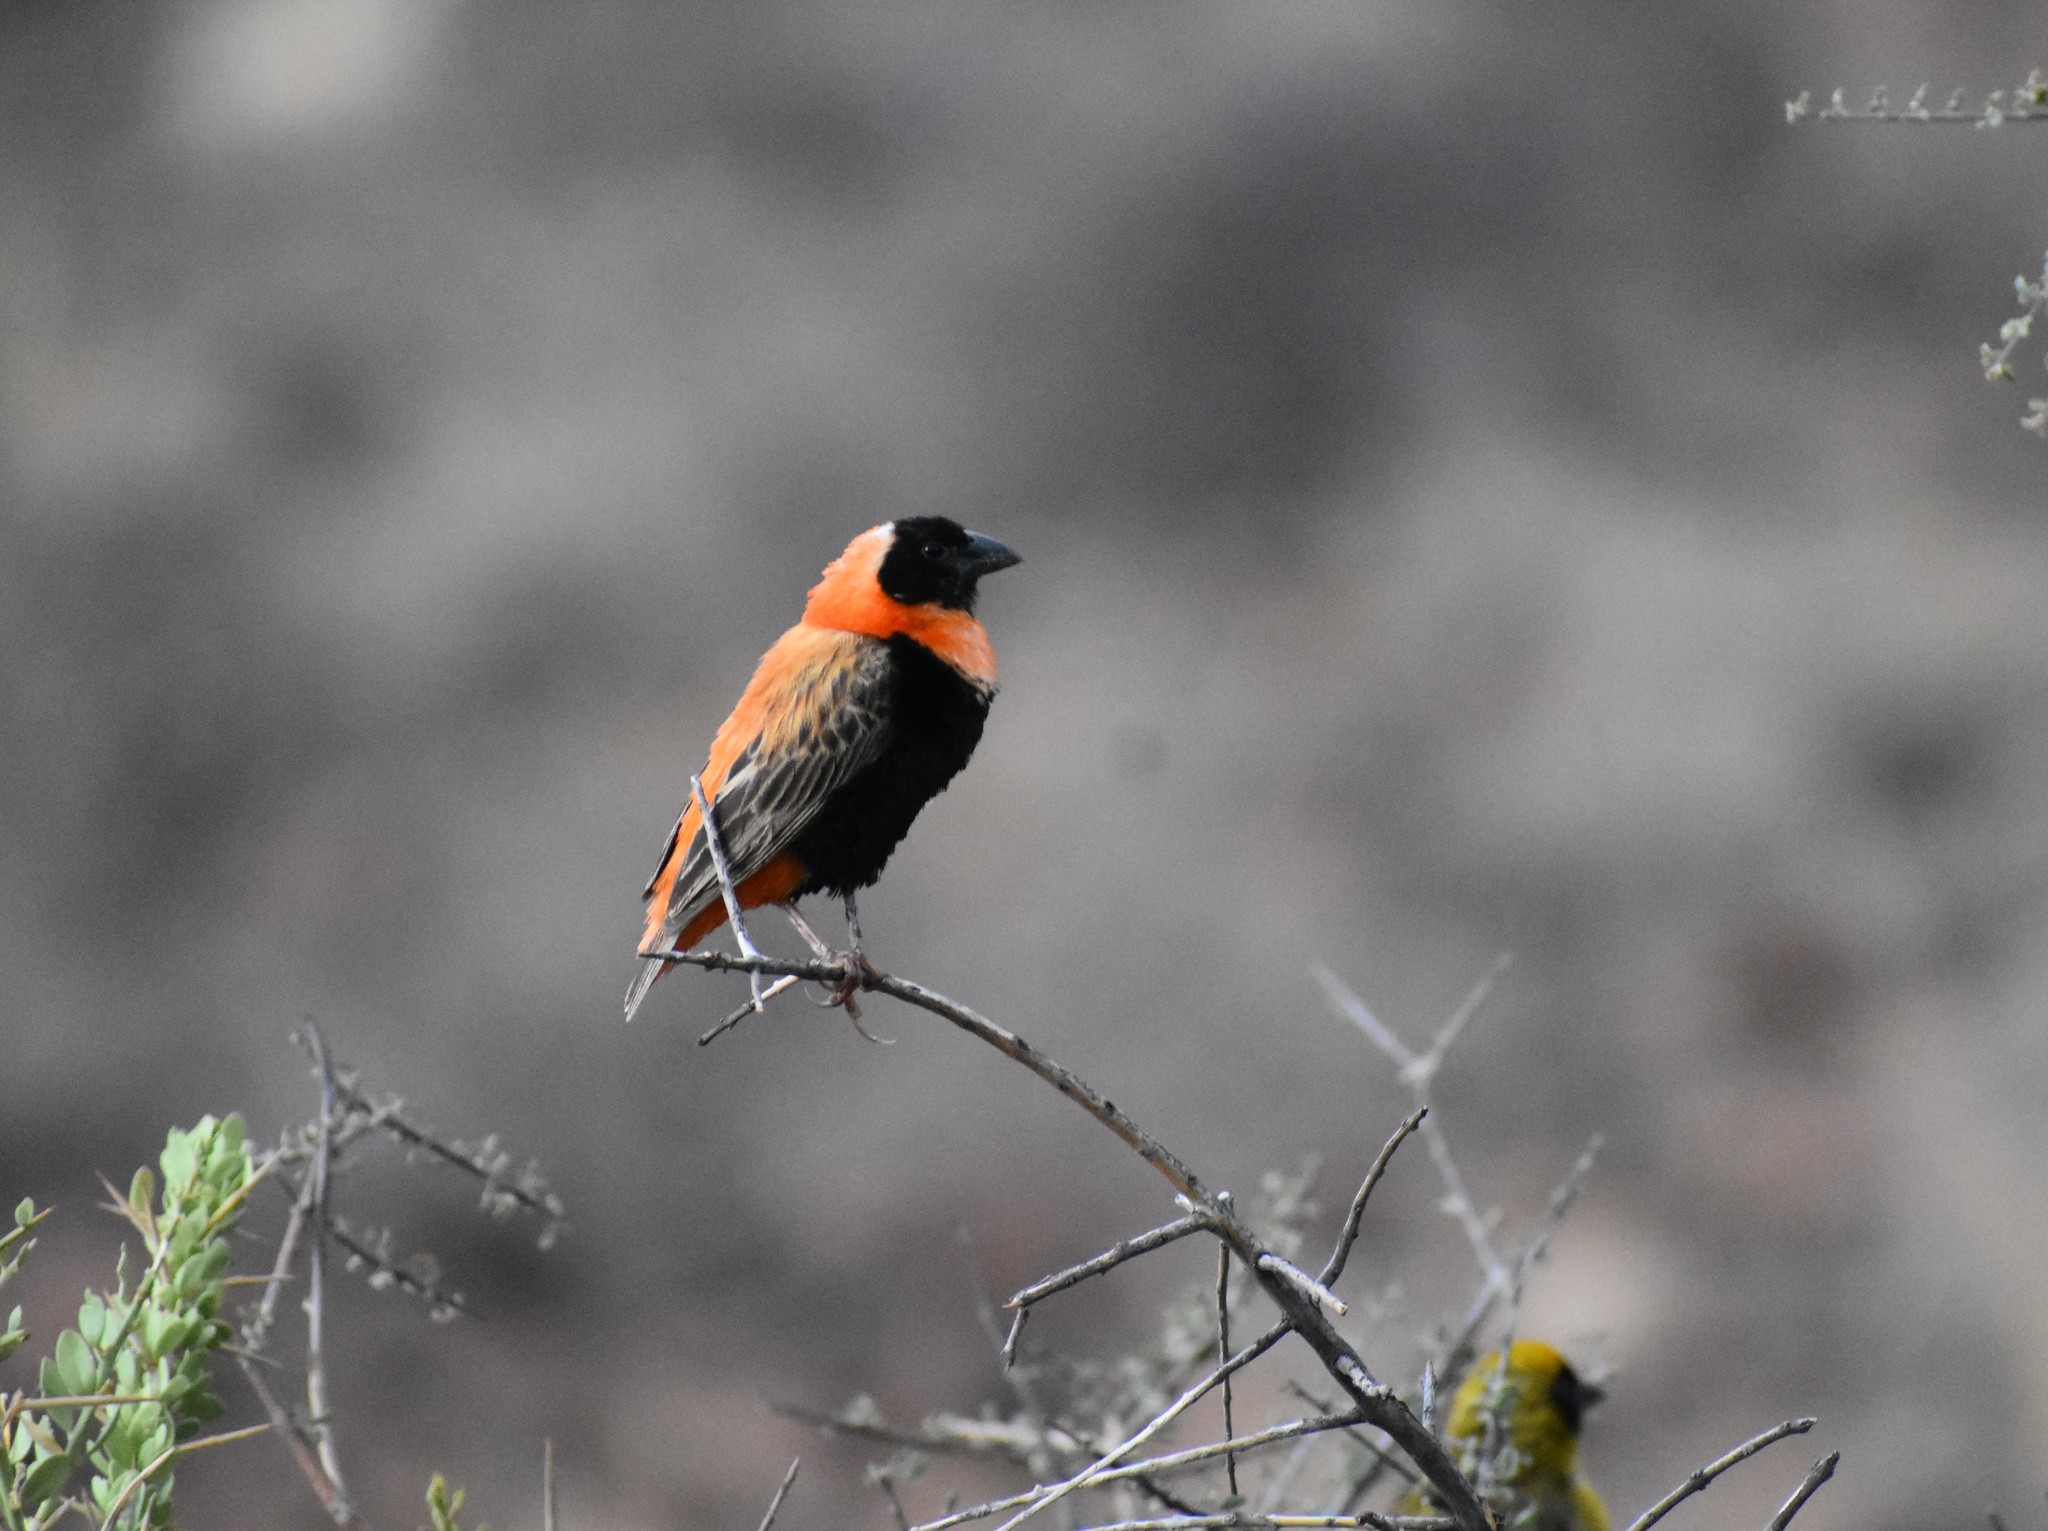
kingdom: Animalia
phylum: Chordata
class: Aves
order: Passeriformes
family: Ploceidae
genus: Euplectes
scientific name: Euplectes orix
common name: Southern red bishop
